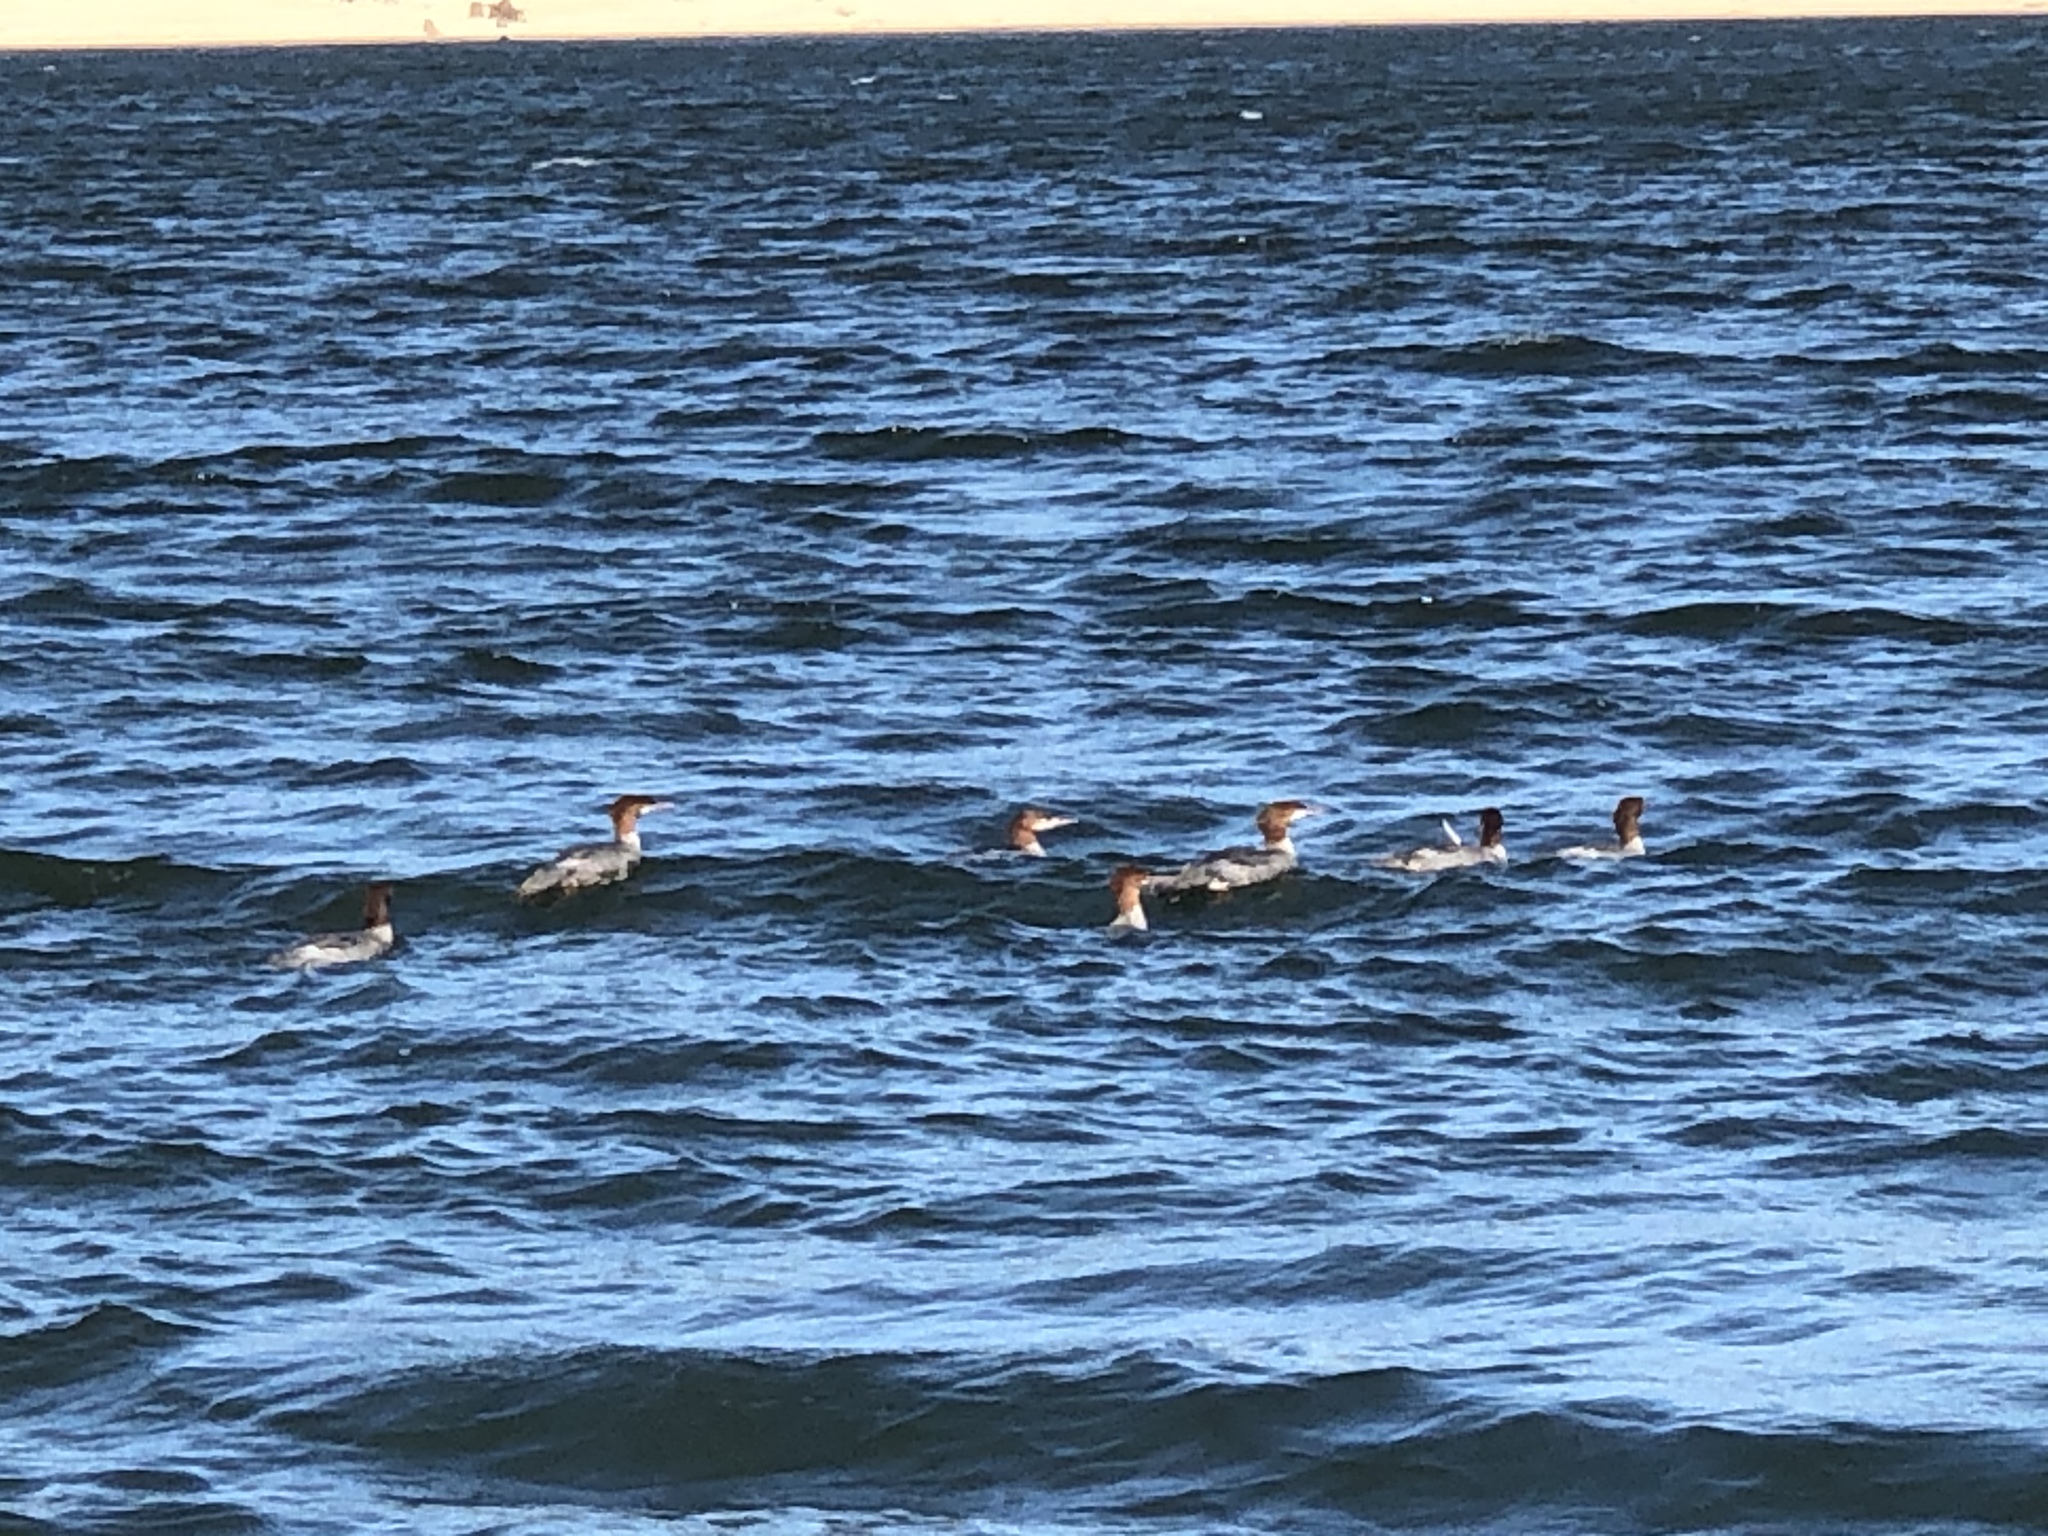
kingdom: Animalia
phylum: Chordata
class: Aves
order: Anseriformes
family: Anatidae
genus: Mergus
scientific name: Mergus merganser
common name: Common merganser
